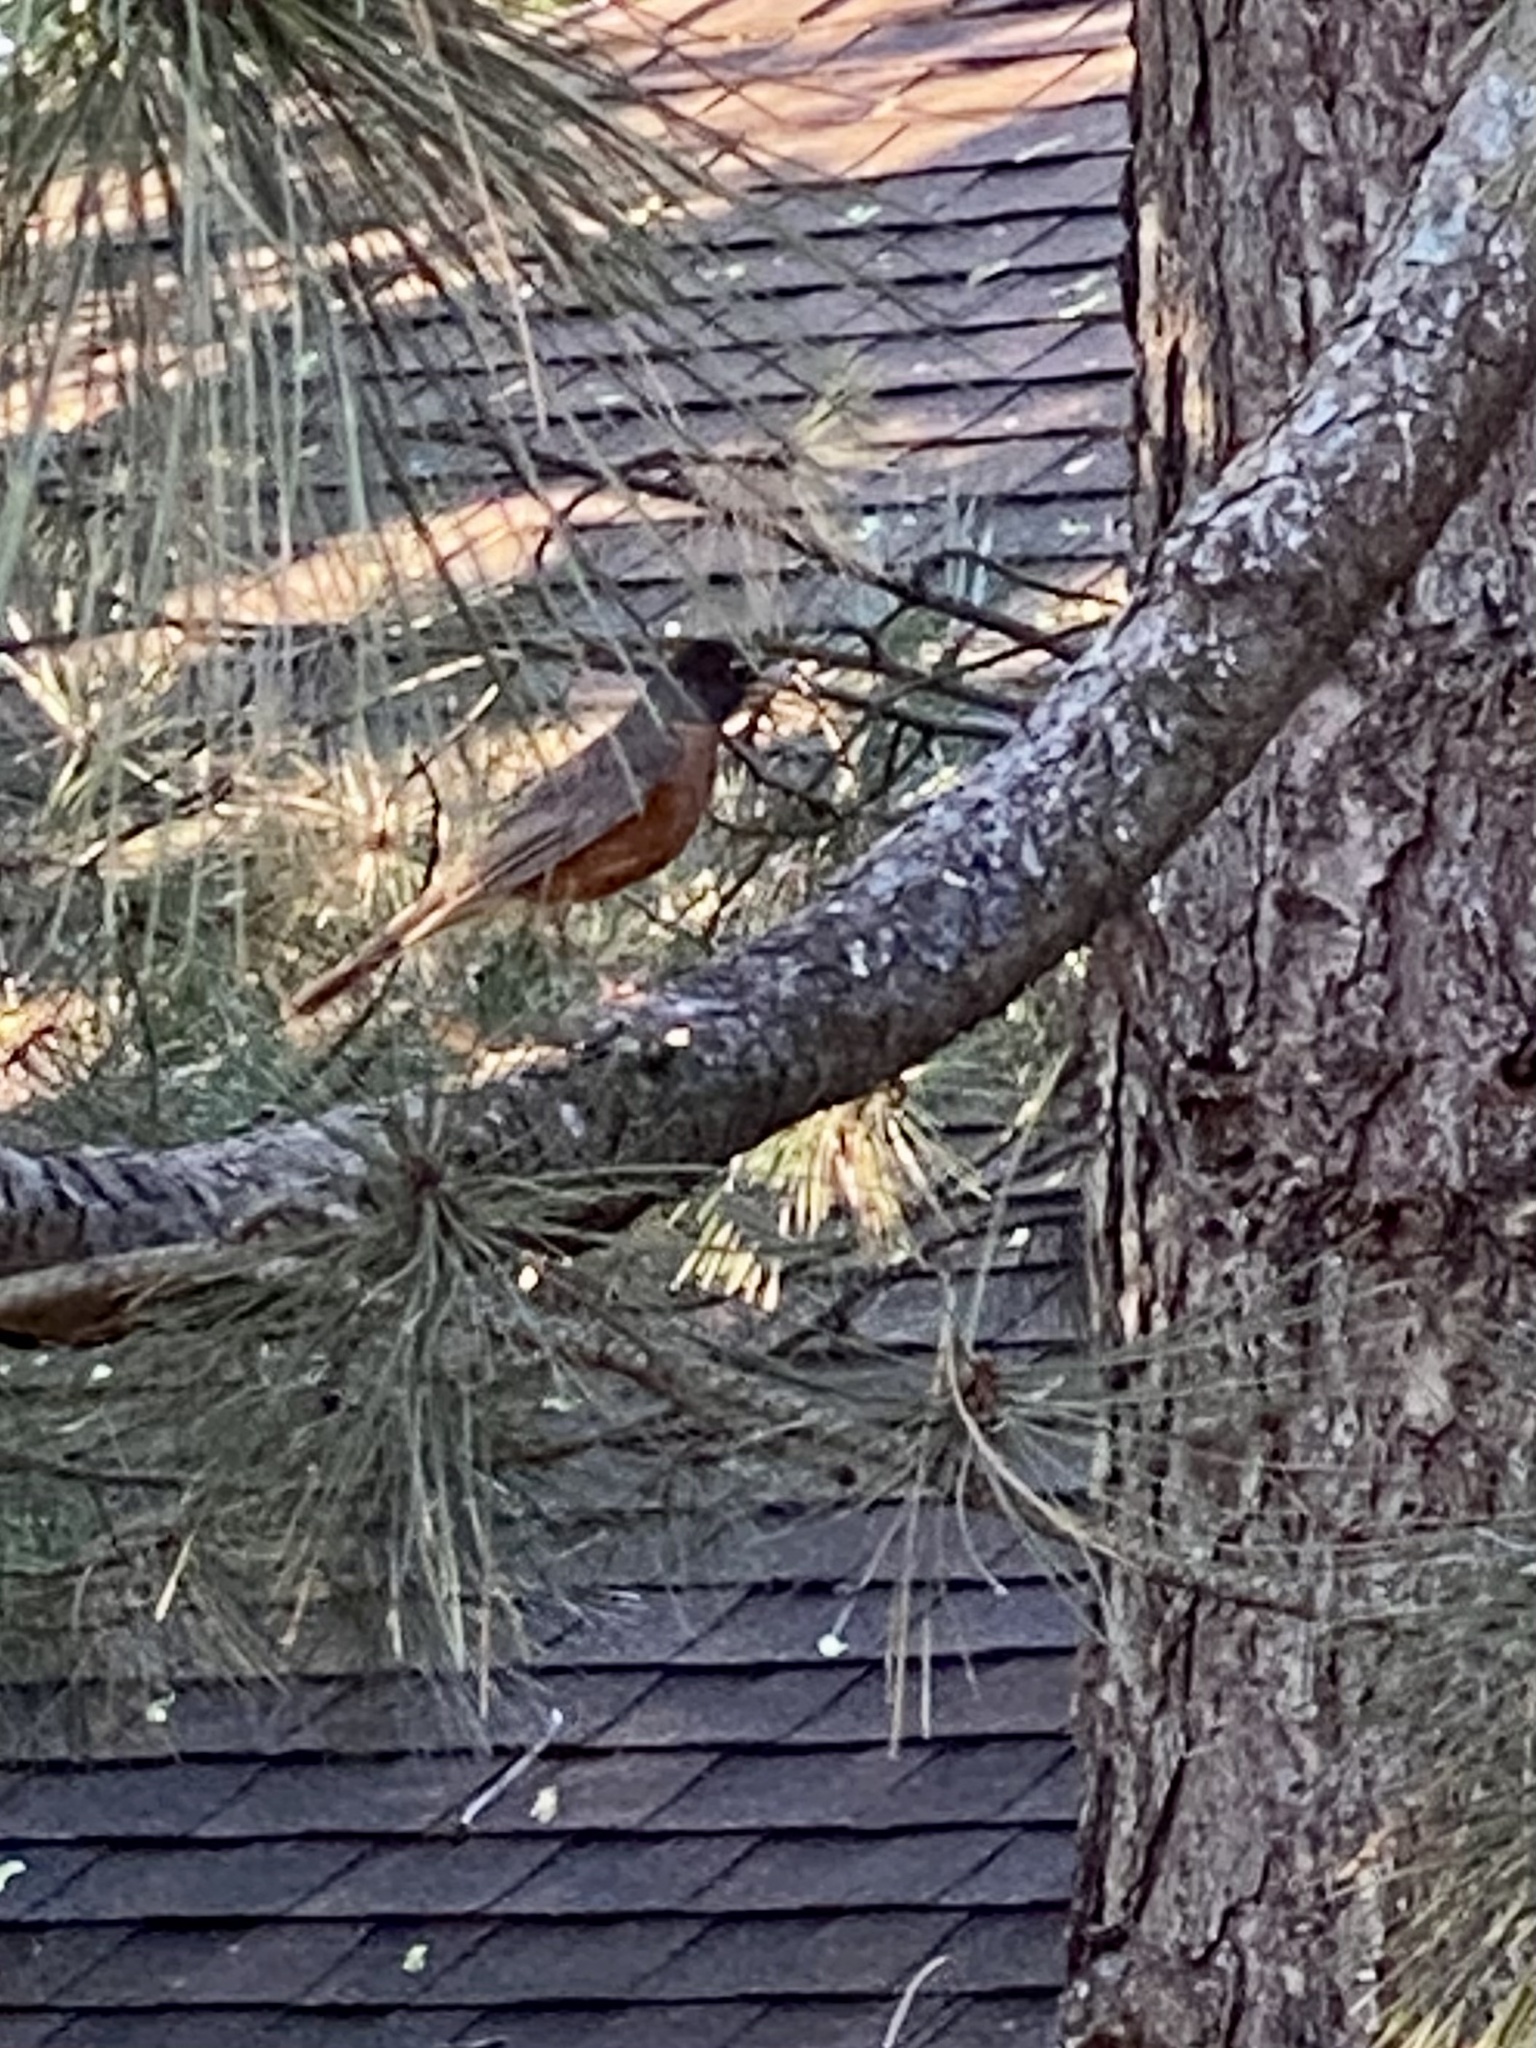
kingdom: Animalia
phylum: Chordata
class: Aves
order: Passeriformes
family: Turdidae
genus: Turdus
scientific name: Turdus migratorius
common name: American robin
